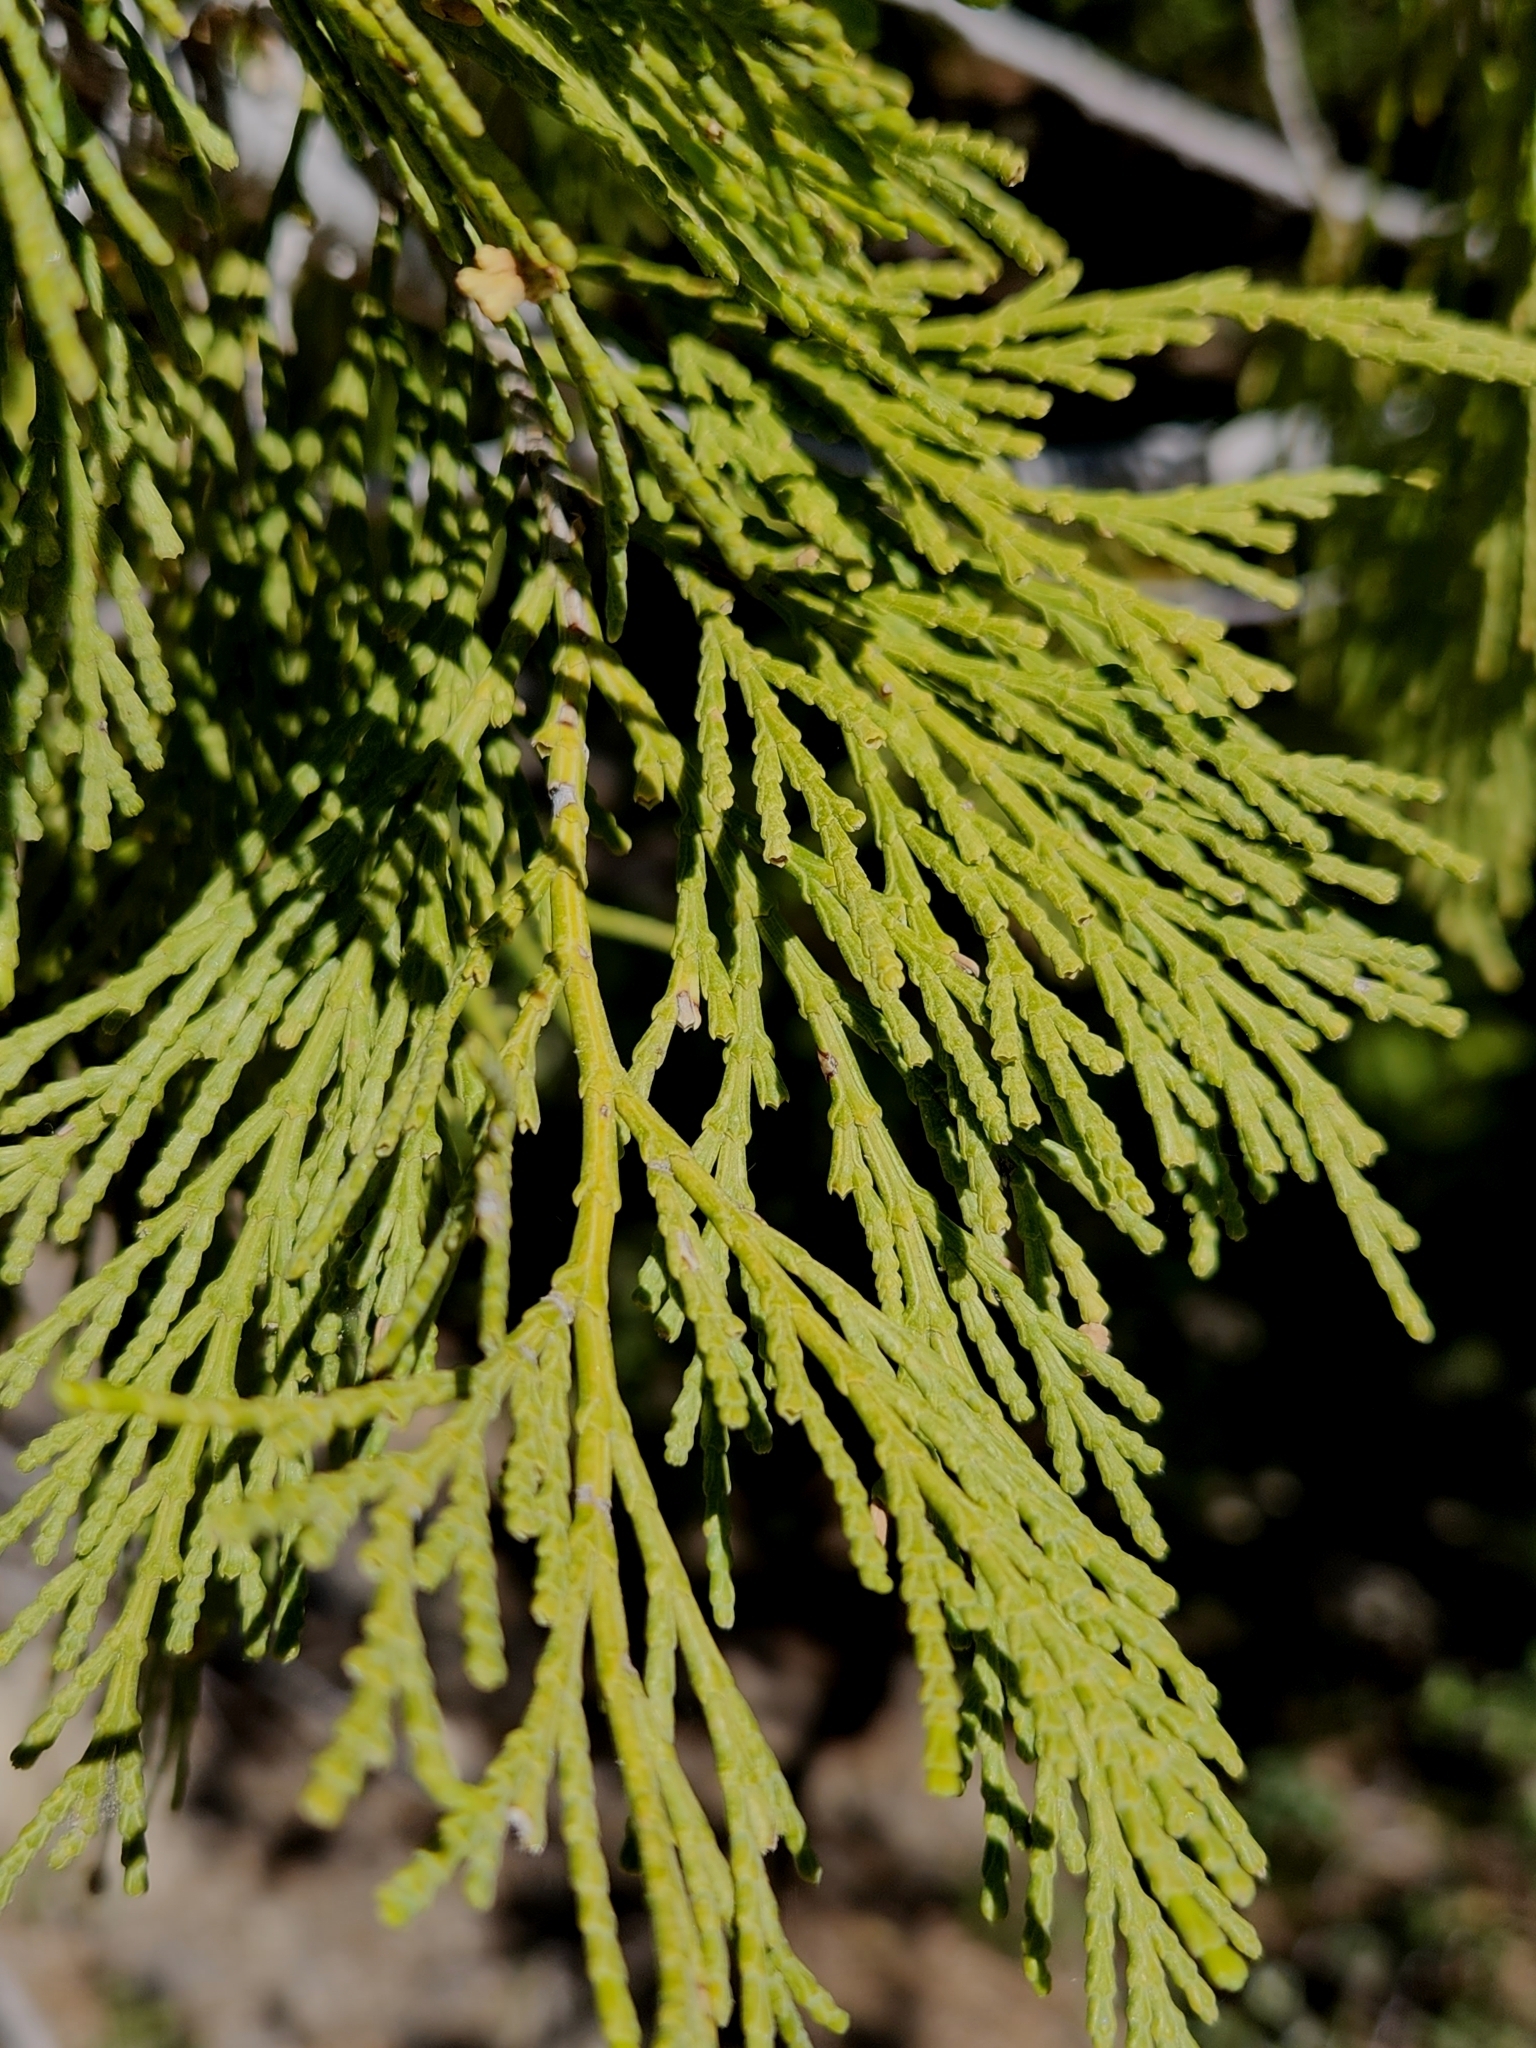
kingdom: Plantae
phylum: Tracheophyta
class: Pinopsida
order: Pinales
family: Cupressaceae
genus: Calocedrus
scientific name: Calocedrus decurrens
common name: Californian incense-cedar
